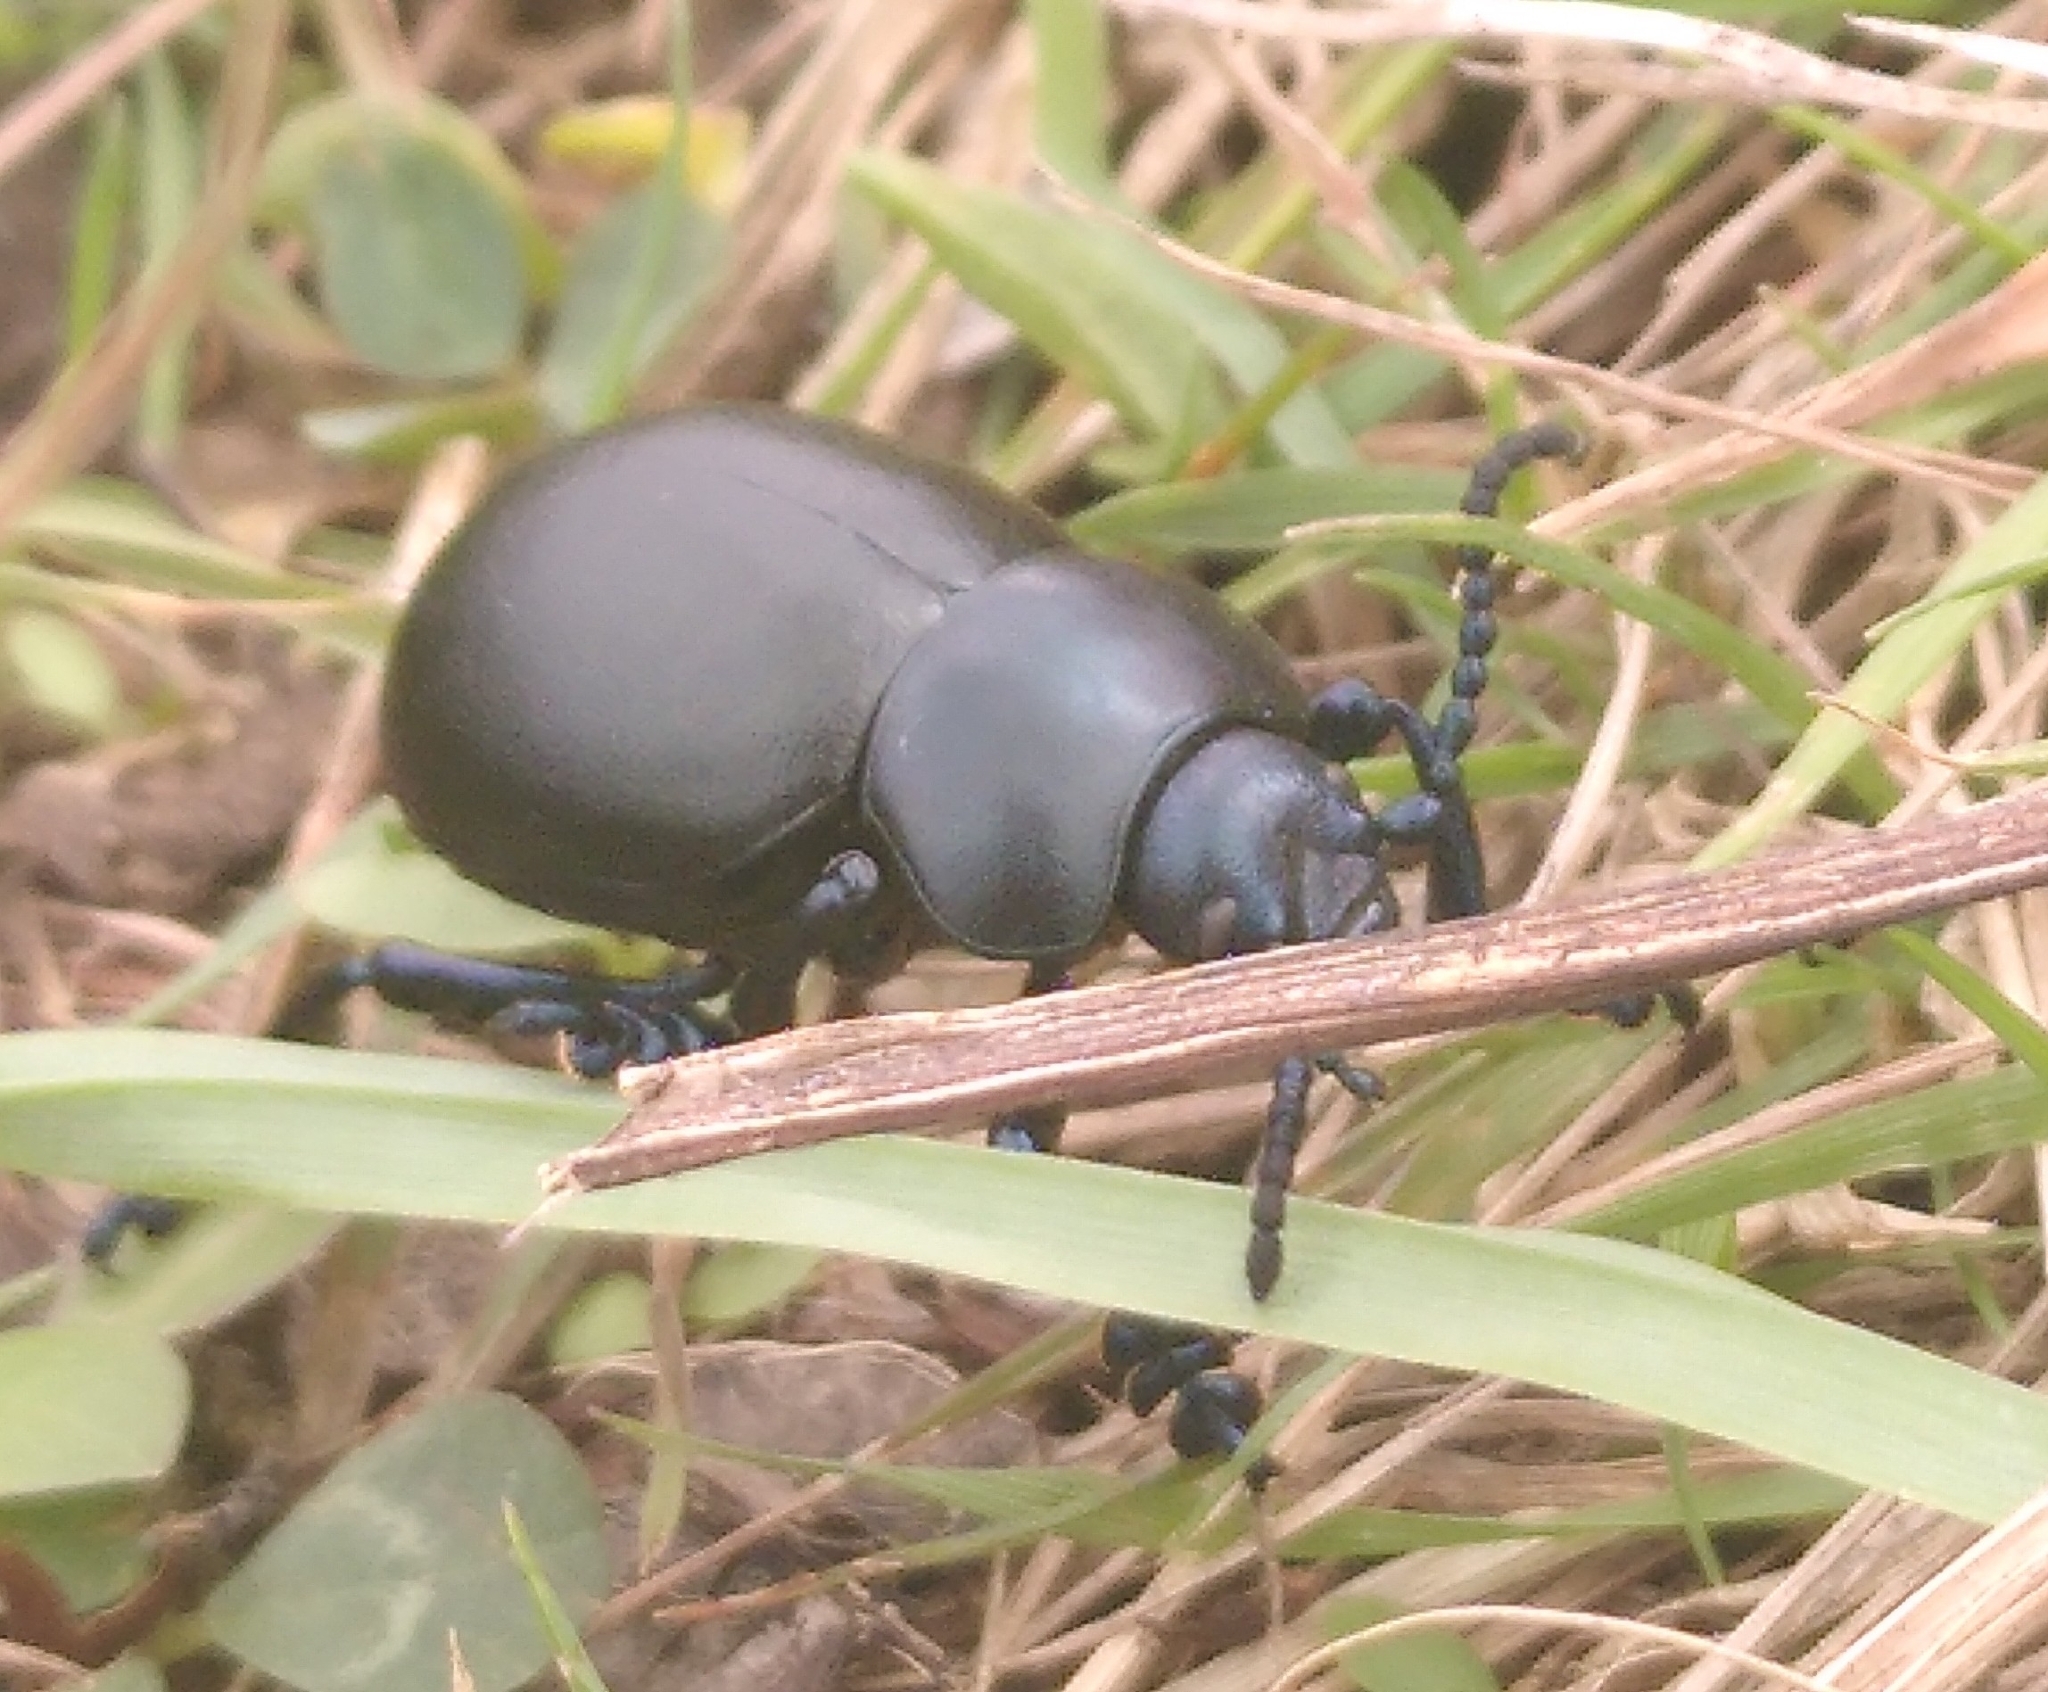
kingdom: Animalia
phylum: Arthropoda
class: Insecta
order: Coleoptera
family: Chrysomelidae
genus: Timarcha
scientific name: Timarcha tenebricosa
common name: Bloody-nosed beetle
